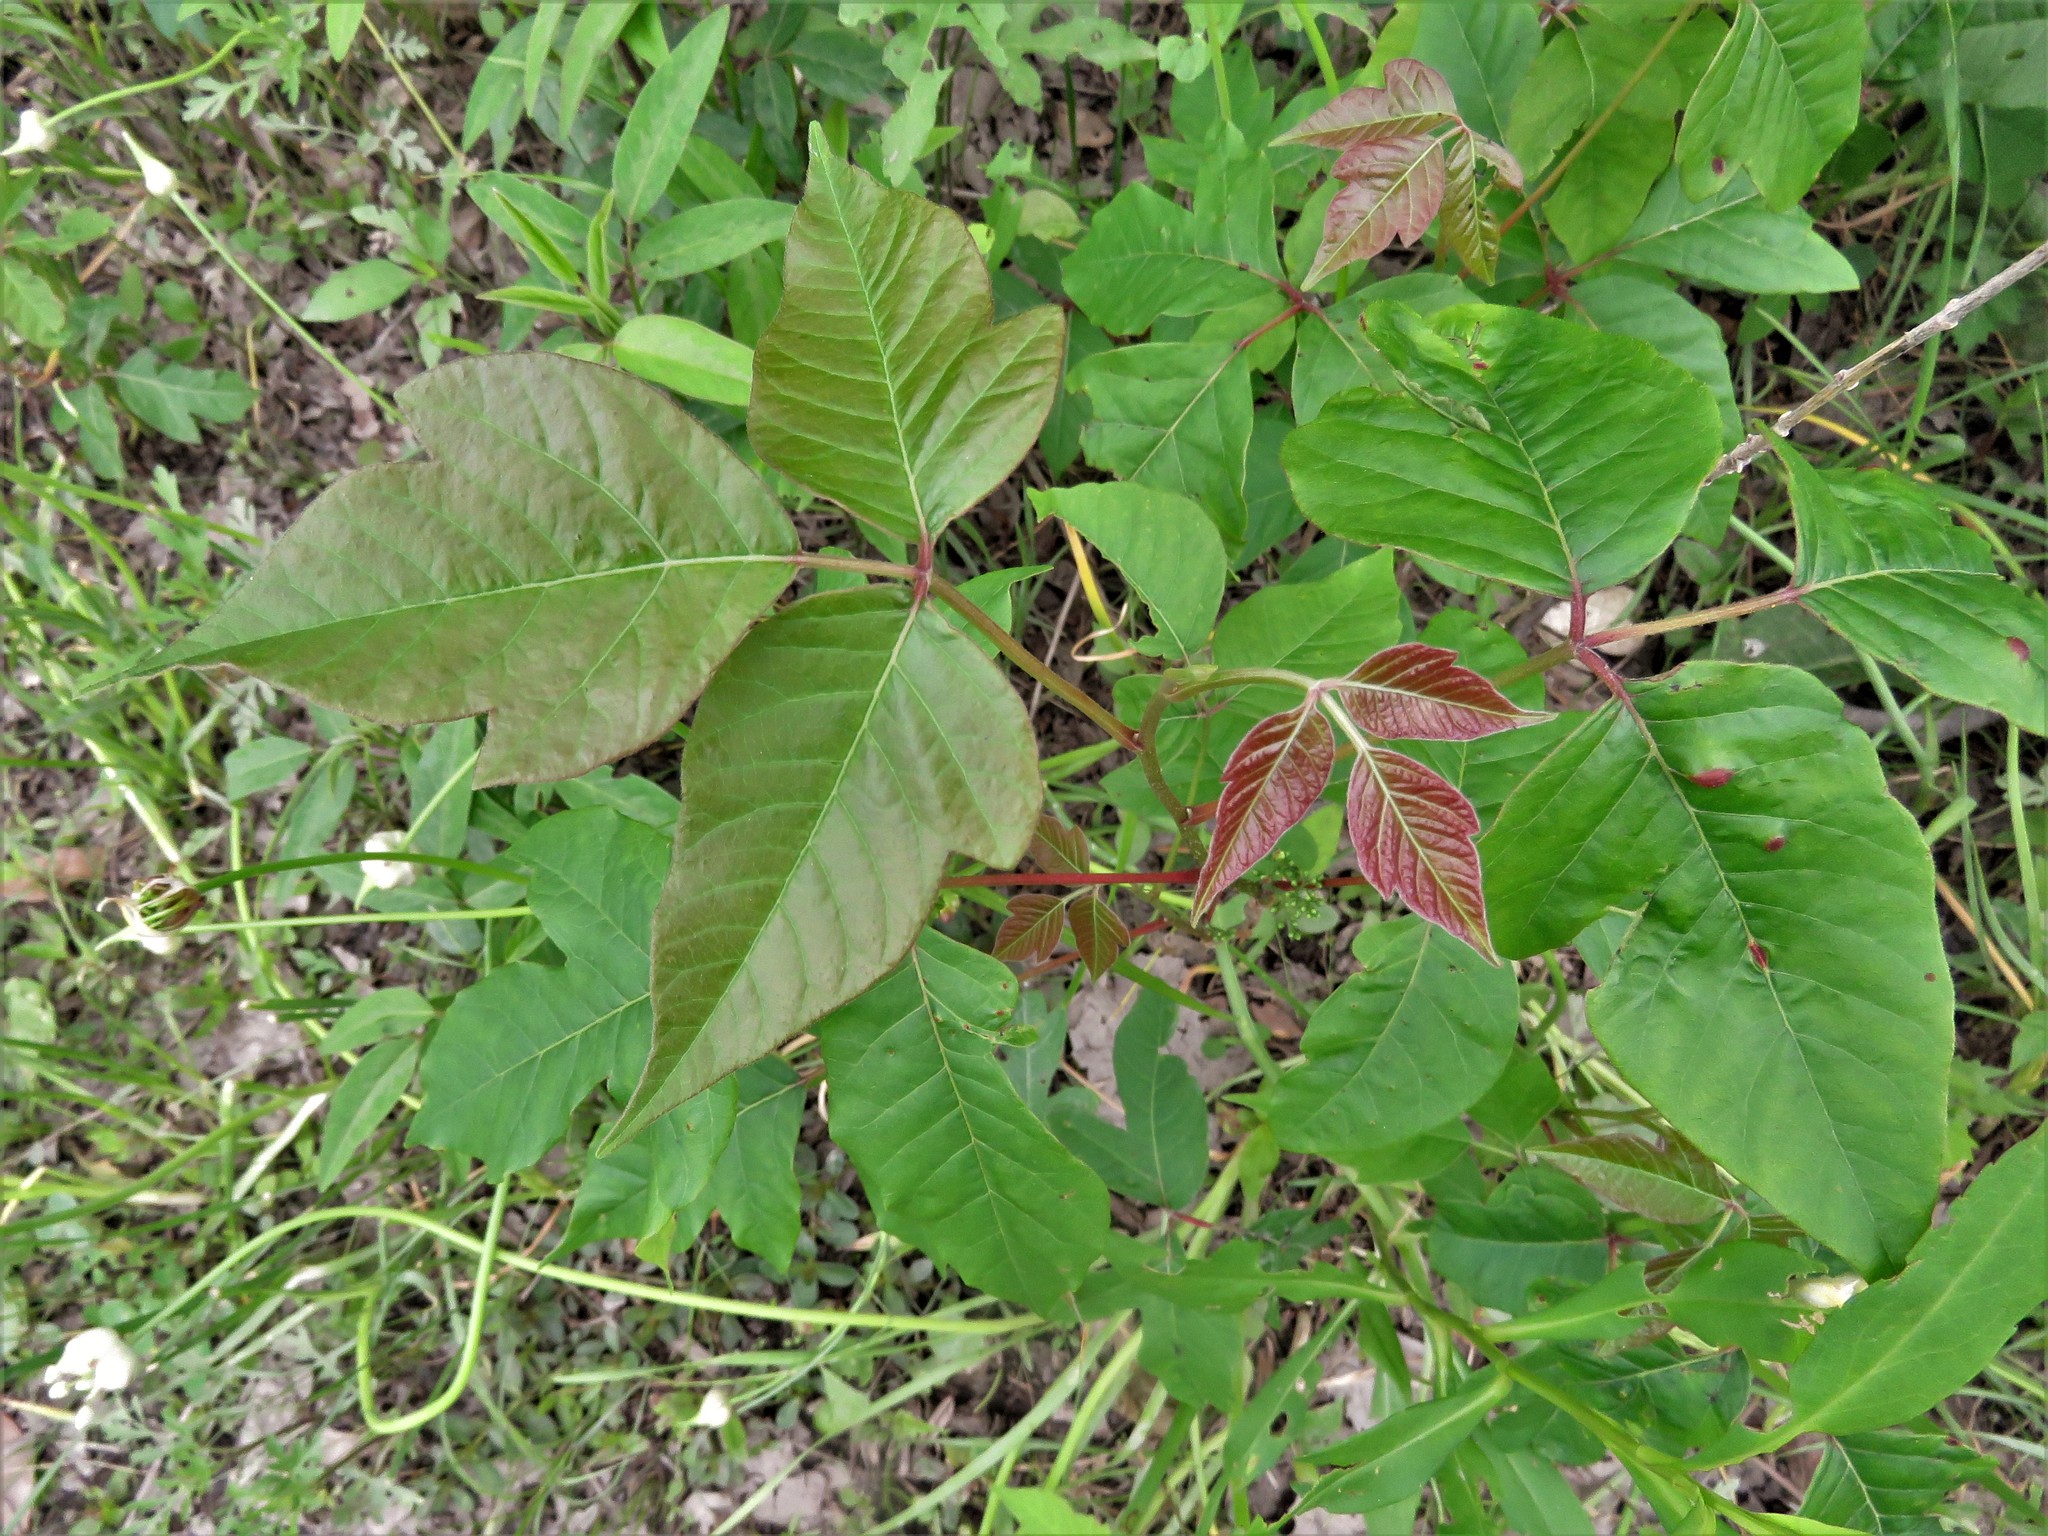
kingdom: Plantae
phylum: Tracheophyta
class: Magnoliopsida
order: Sapindales
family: Anacardiaceae
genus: Toxicodendron
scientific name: Toxicodendron radicans
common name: Poison ivy
